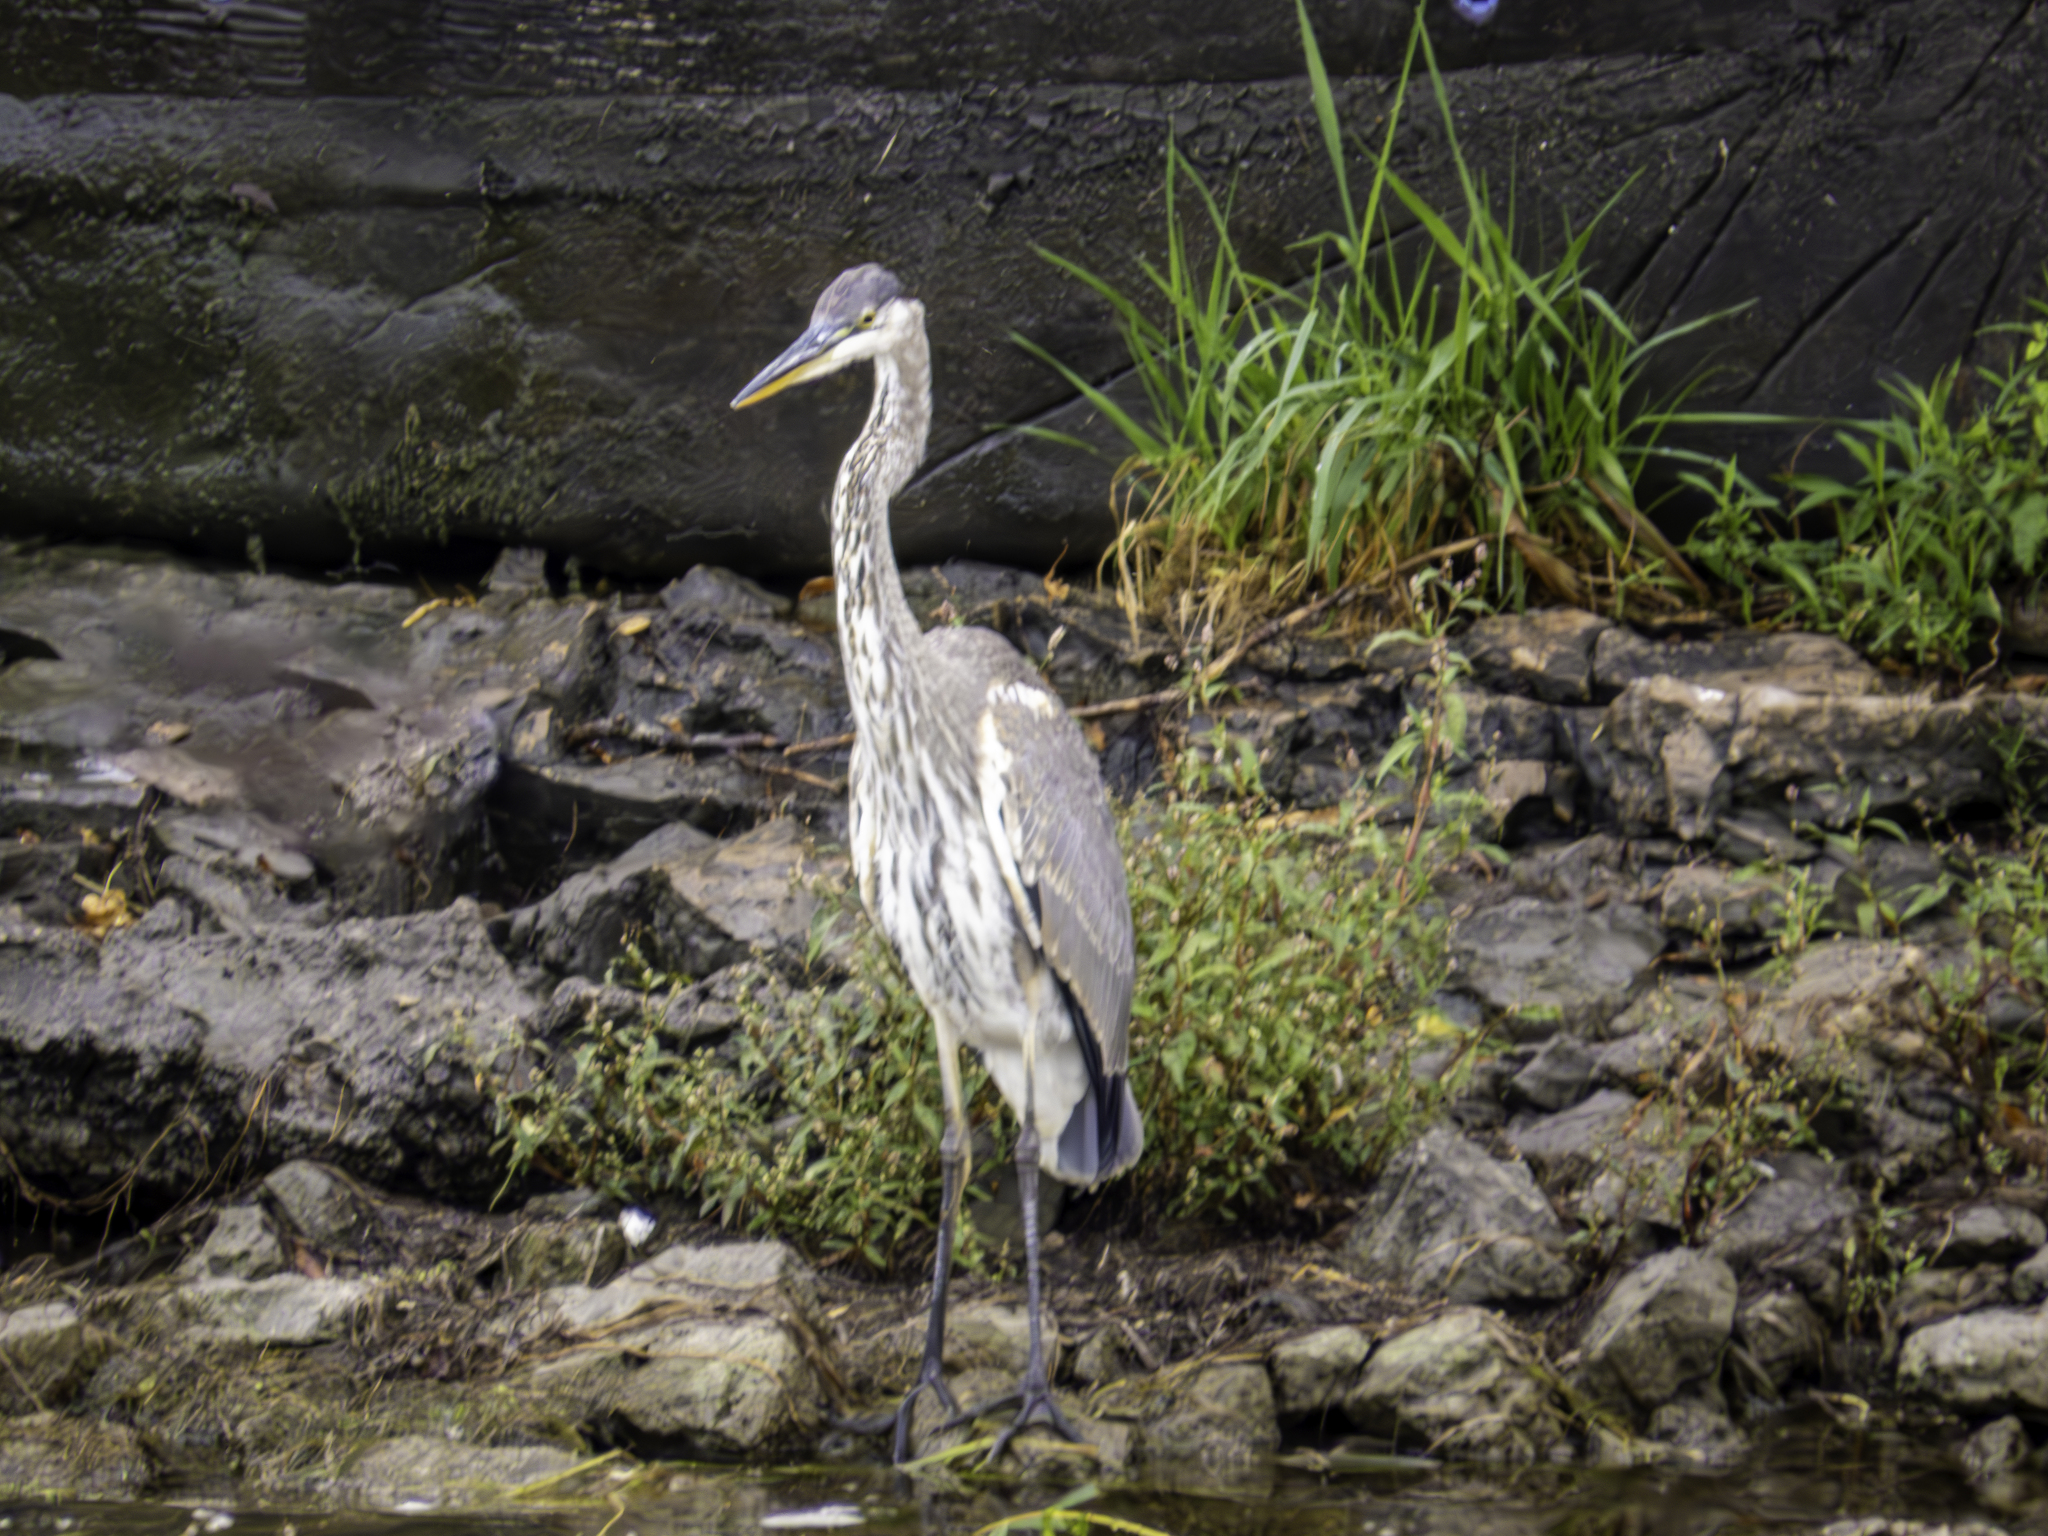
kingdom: Animalia
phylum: Chordata
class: Aves
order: Pelecaniformes
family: Ardeidae
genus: Ardea
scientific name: Ardea herodias
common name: Great blue heron
